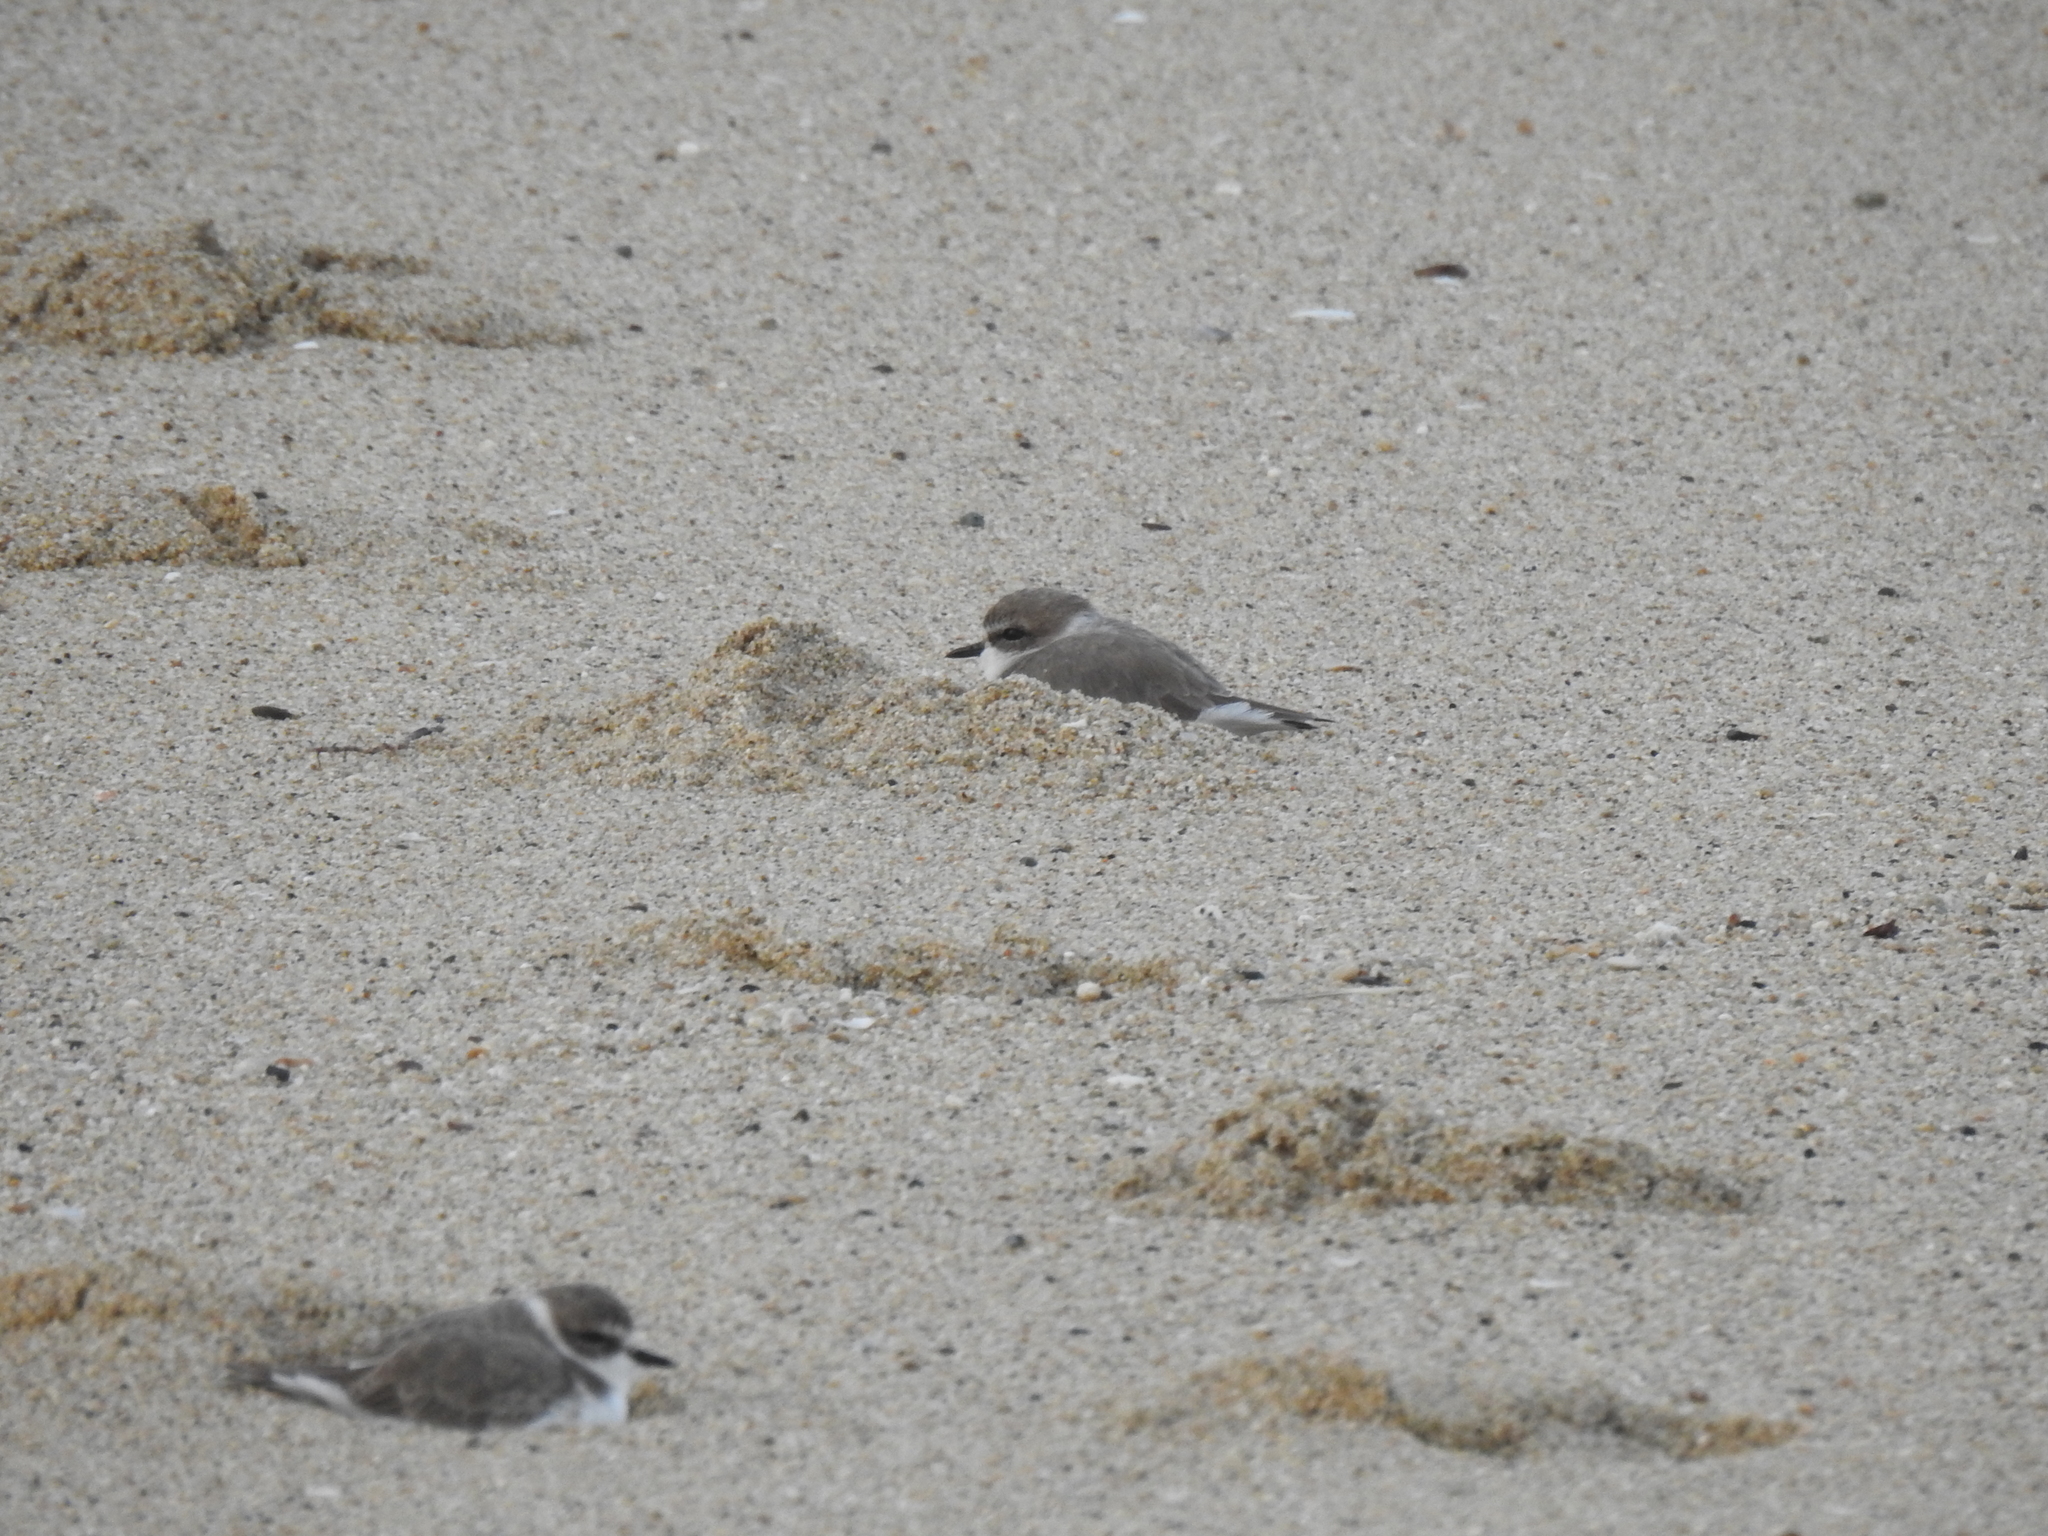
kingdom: Animalia
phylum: Chordata
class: Aves
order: Charadriiformes
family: Charadriidae
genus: Anarhynchus
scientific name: Anarhynchus
